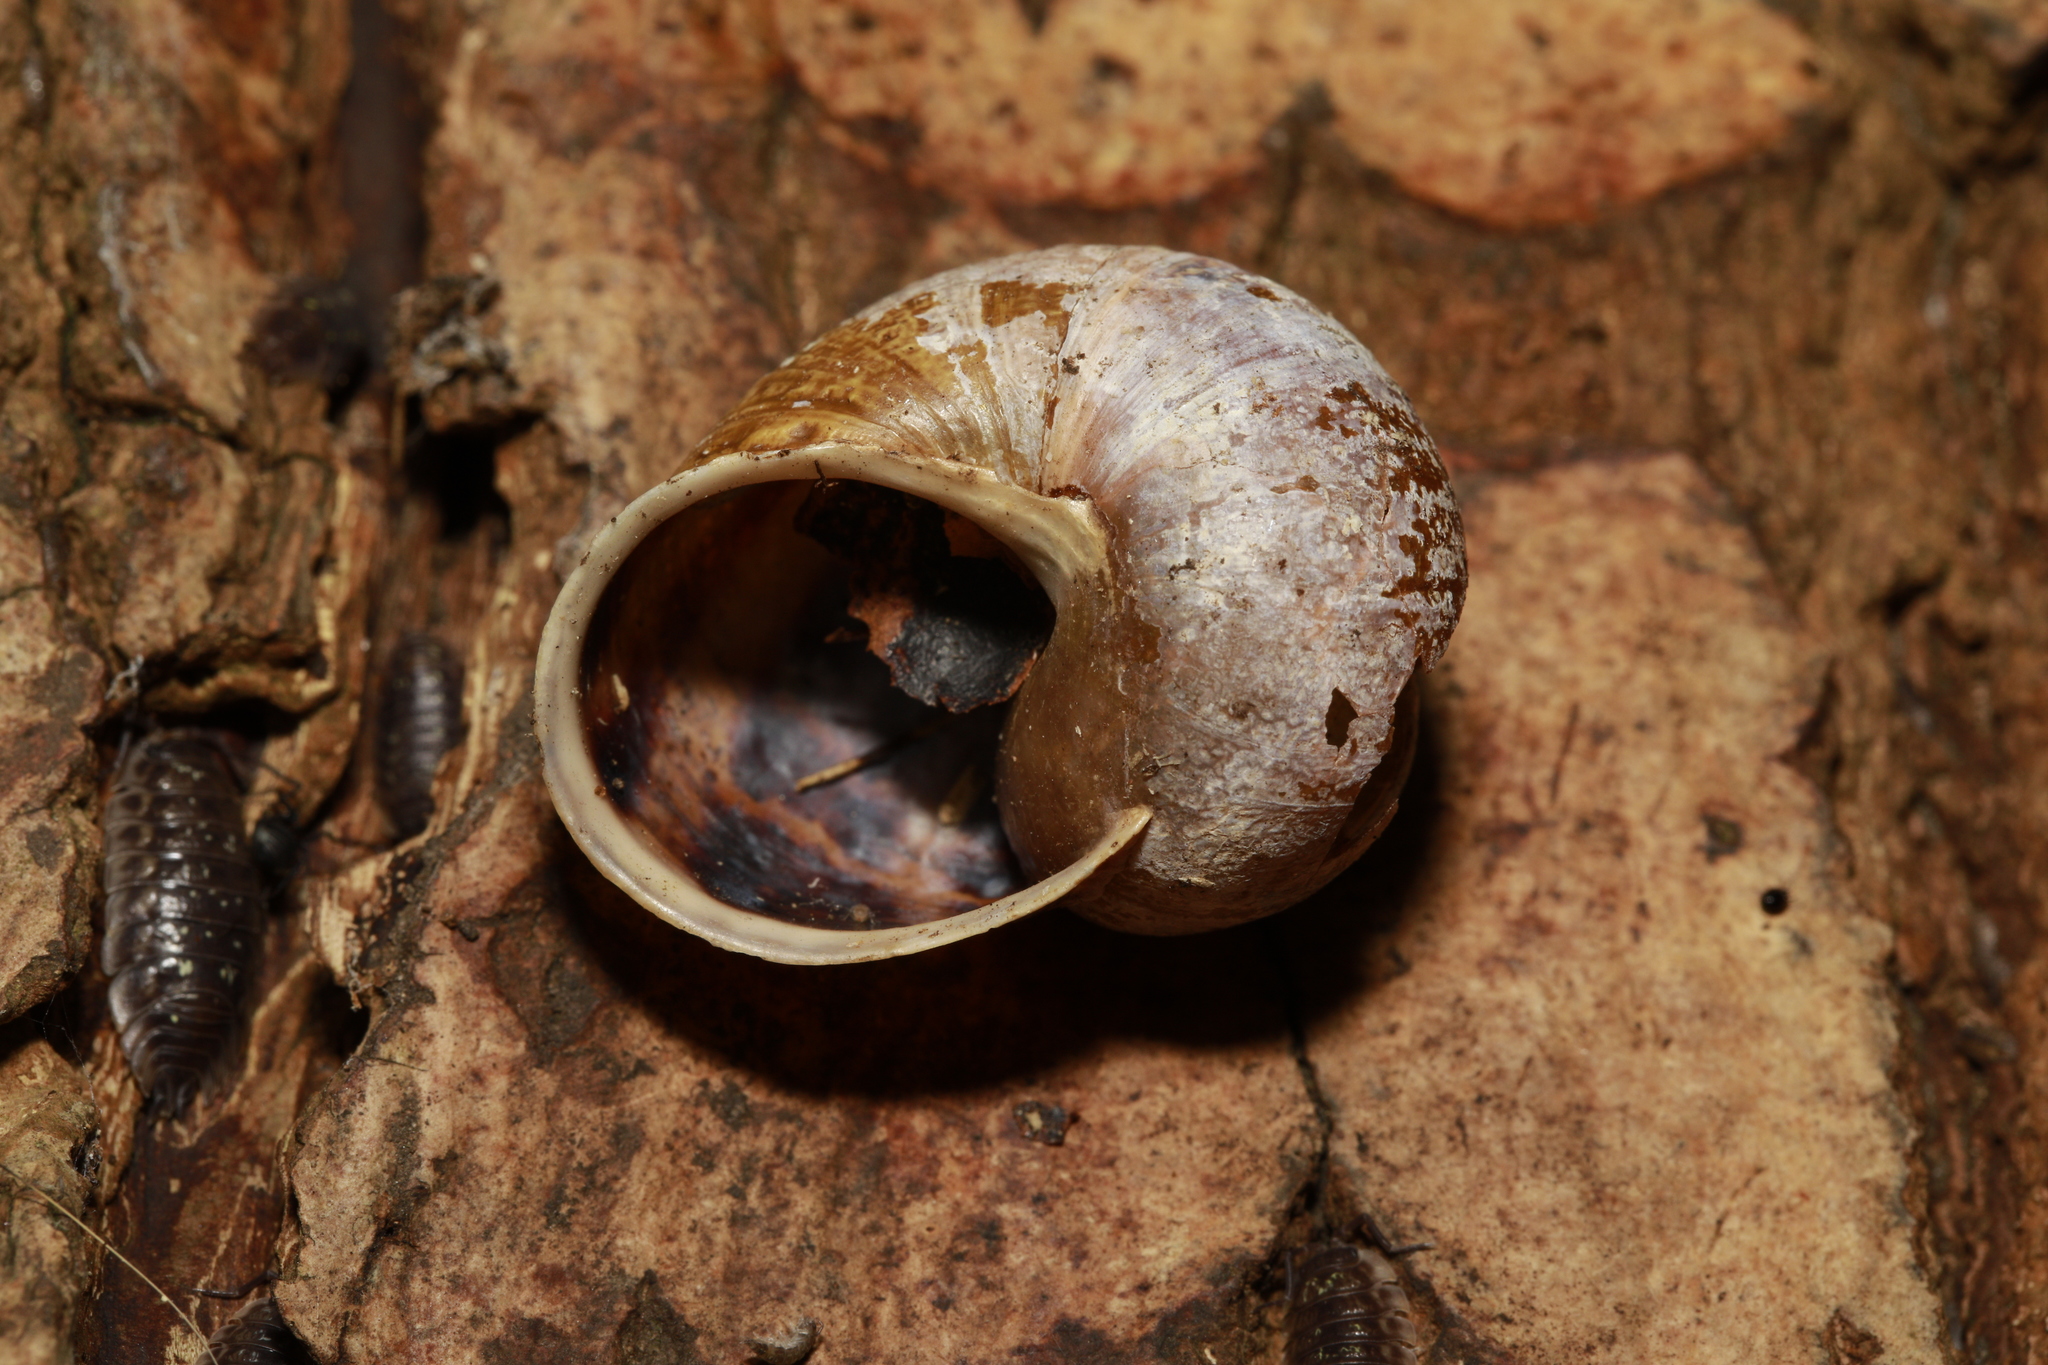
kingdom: Animalia
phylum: Mollusca
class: Gastropoda
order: Stylommatophora
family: Helicidae
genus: Cornu
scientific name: Cornu aspersum
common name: Brown garden snail
